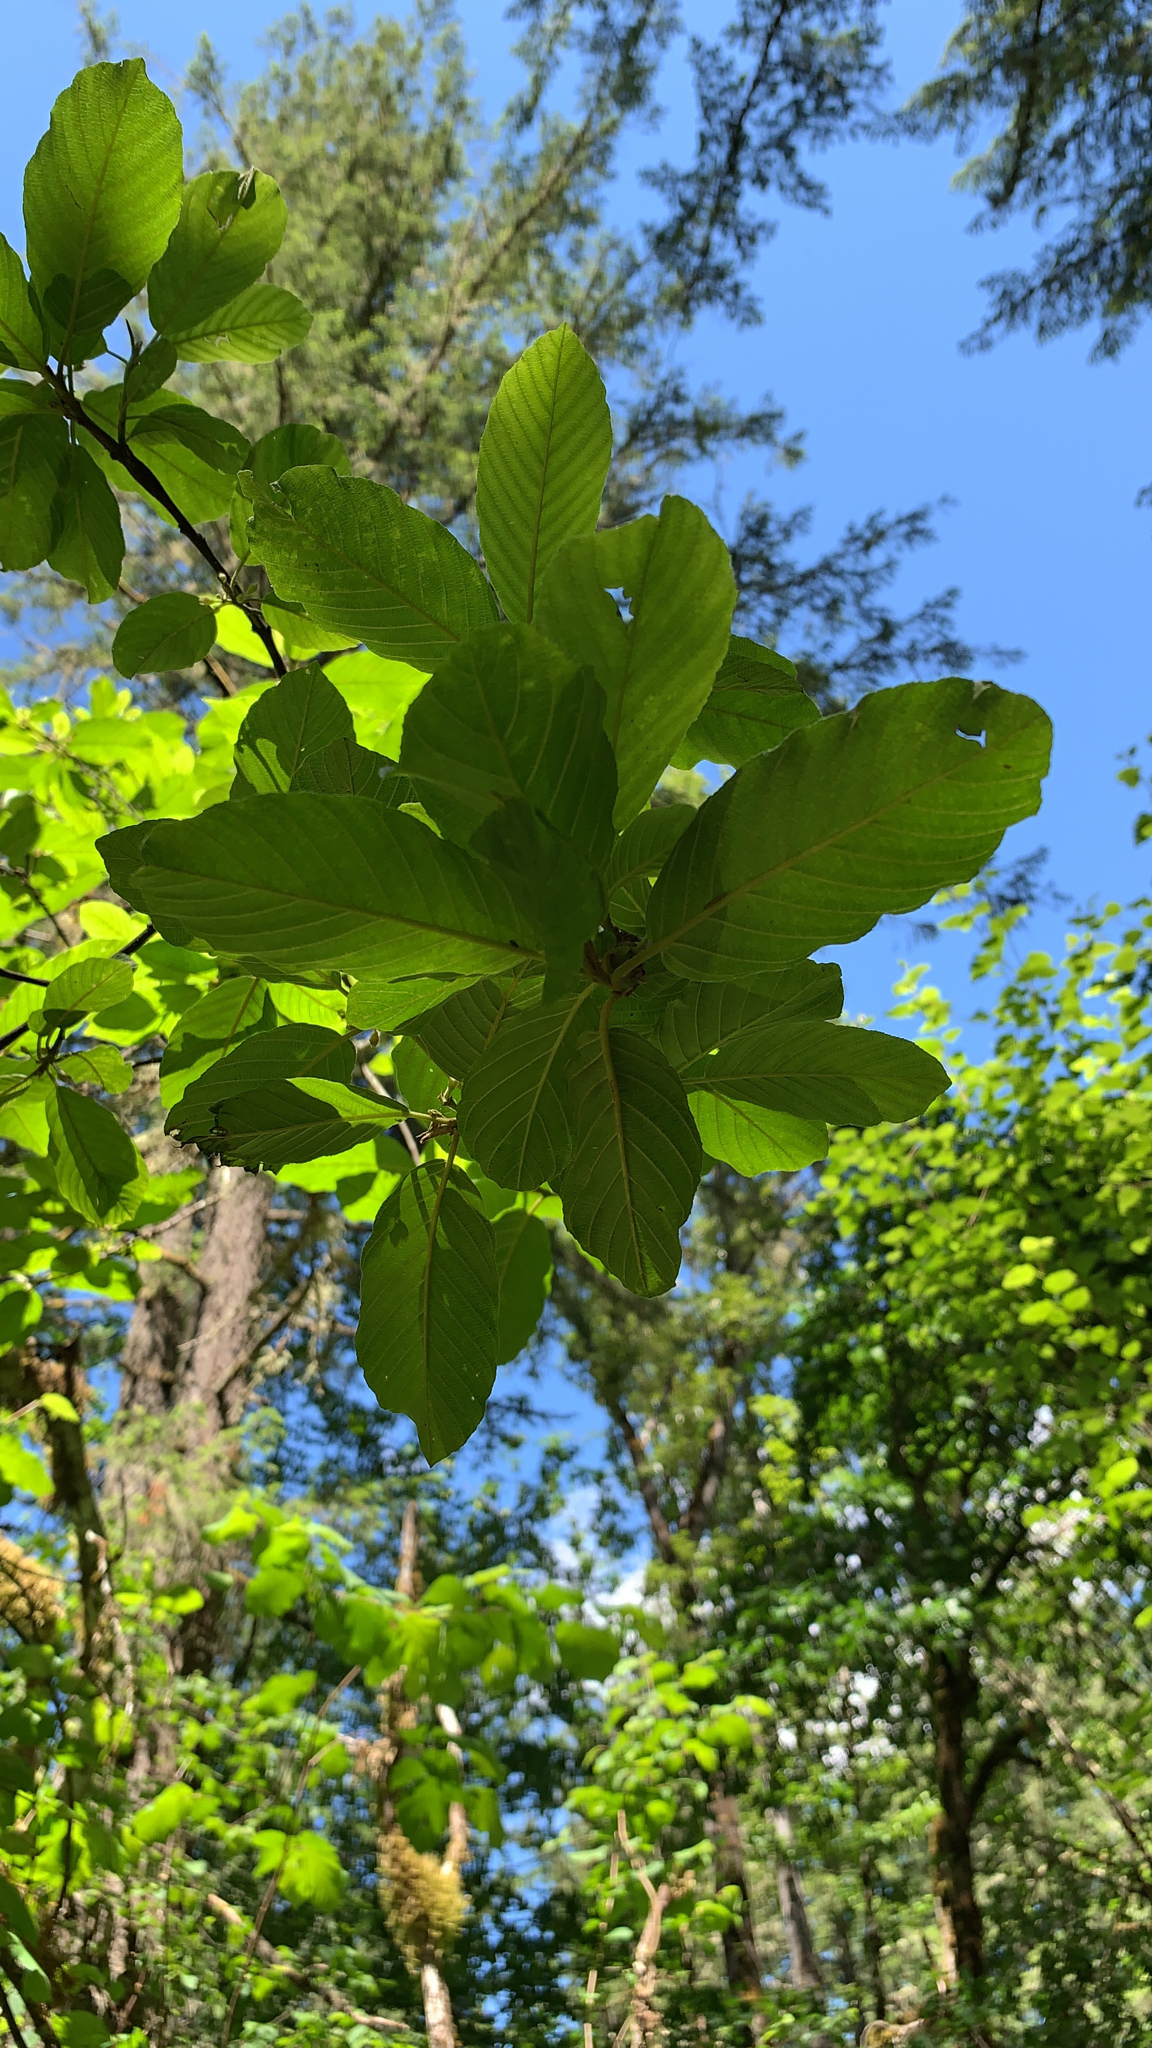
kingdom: Plantae
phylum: Tracheophyta
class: Magnoliopsida
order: Rosales
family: Rhamnaceae
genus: Frangula
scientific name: Frangula purshiana
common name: Cascara buckthorn
